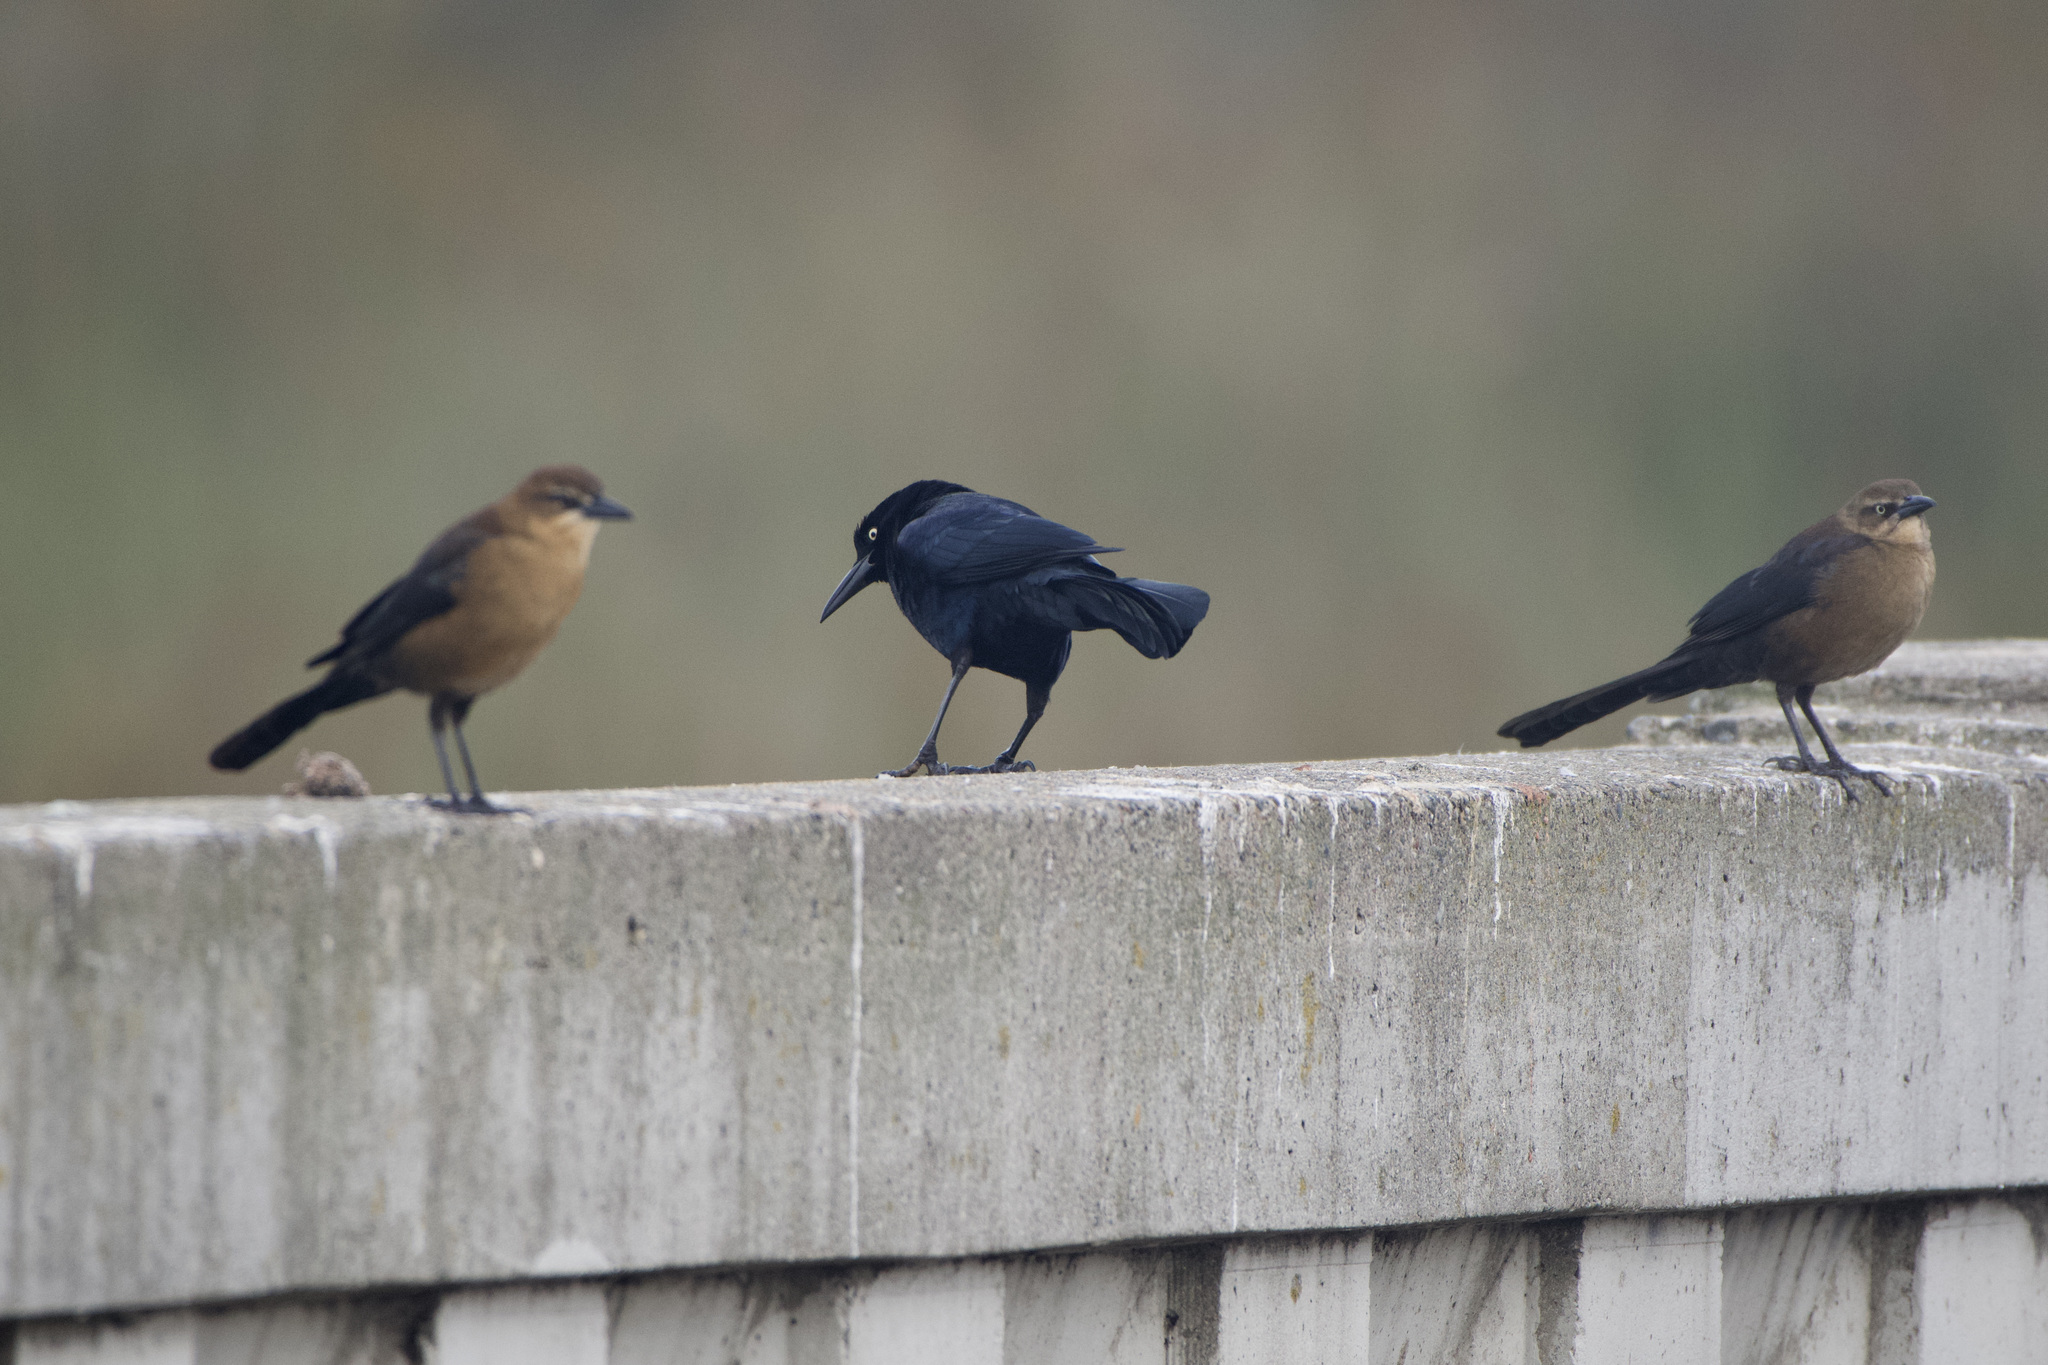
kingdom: Animalia
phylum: Chordata
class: Aves
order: Passeriformes
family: Icteridae
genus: Quiscalus
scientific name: Quiscalus mexicanus
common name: Great-tailed grackle
